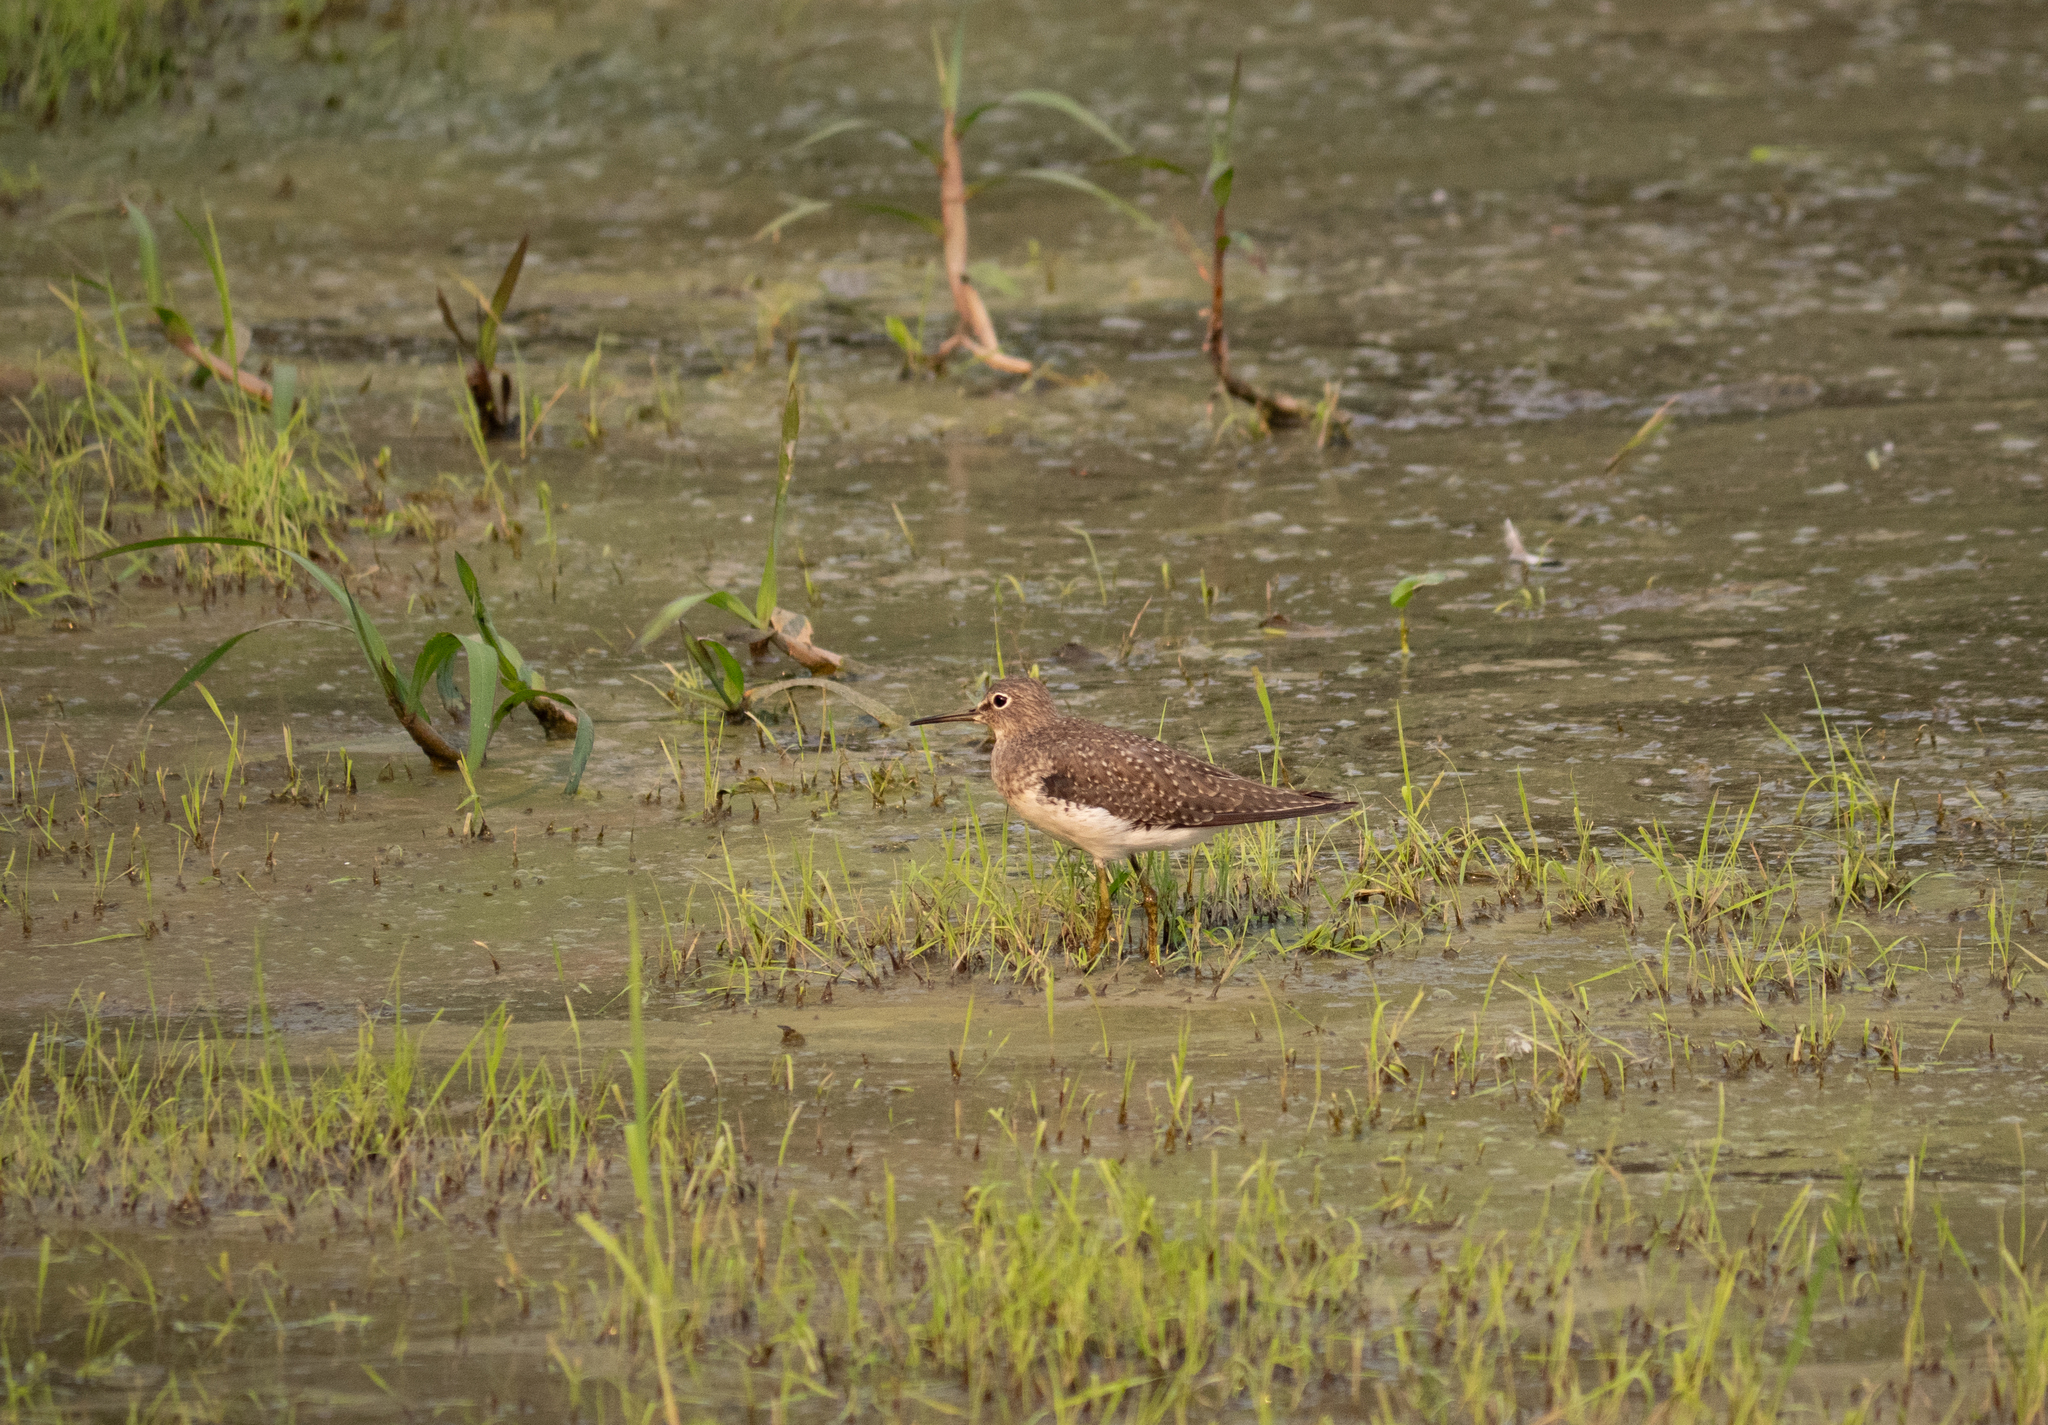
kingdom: Animalia
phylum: Chordata
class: Aves
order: Charadriiformes
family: Scolopacidae
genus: Tringa
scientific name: Tringa solitaria
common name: Solitary sandpiper
